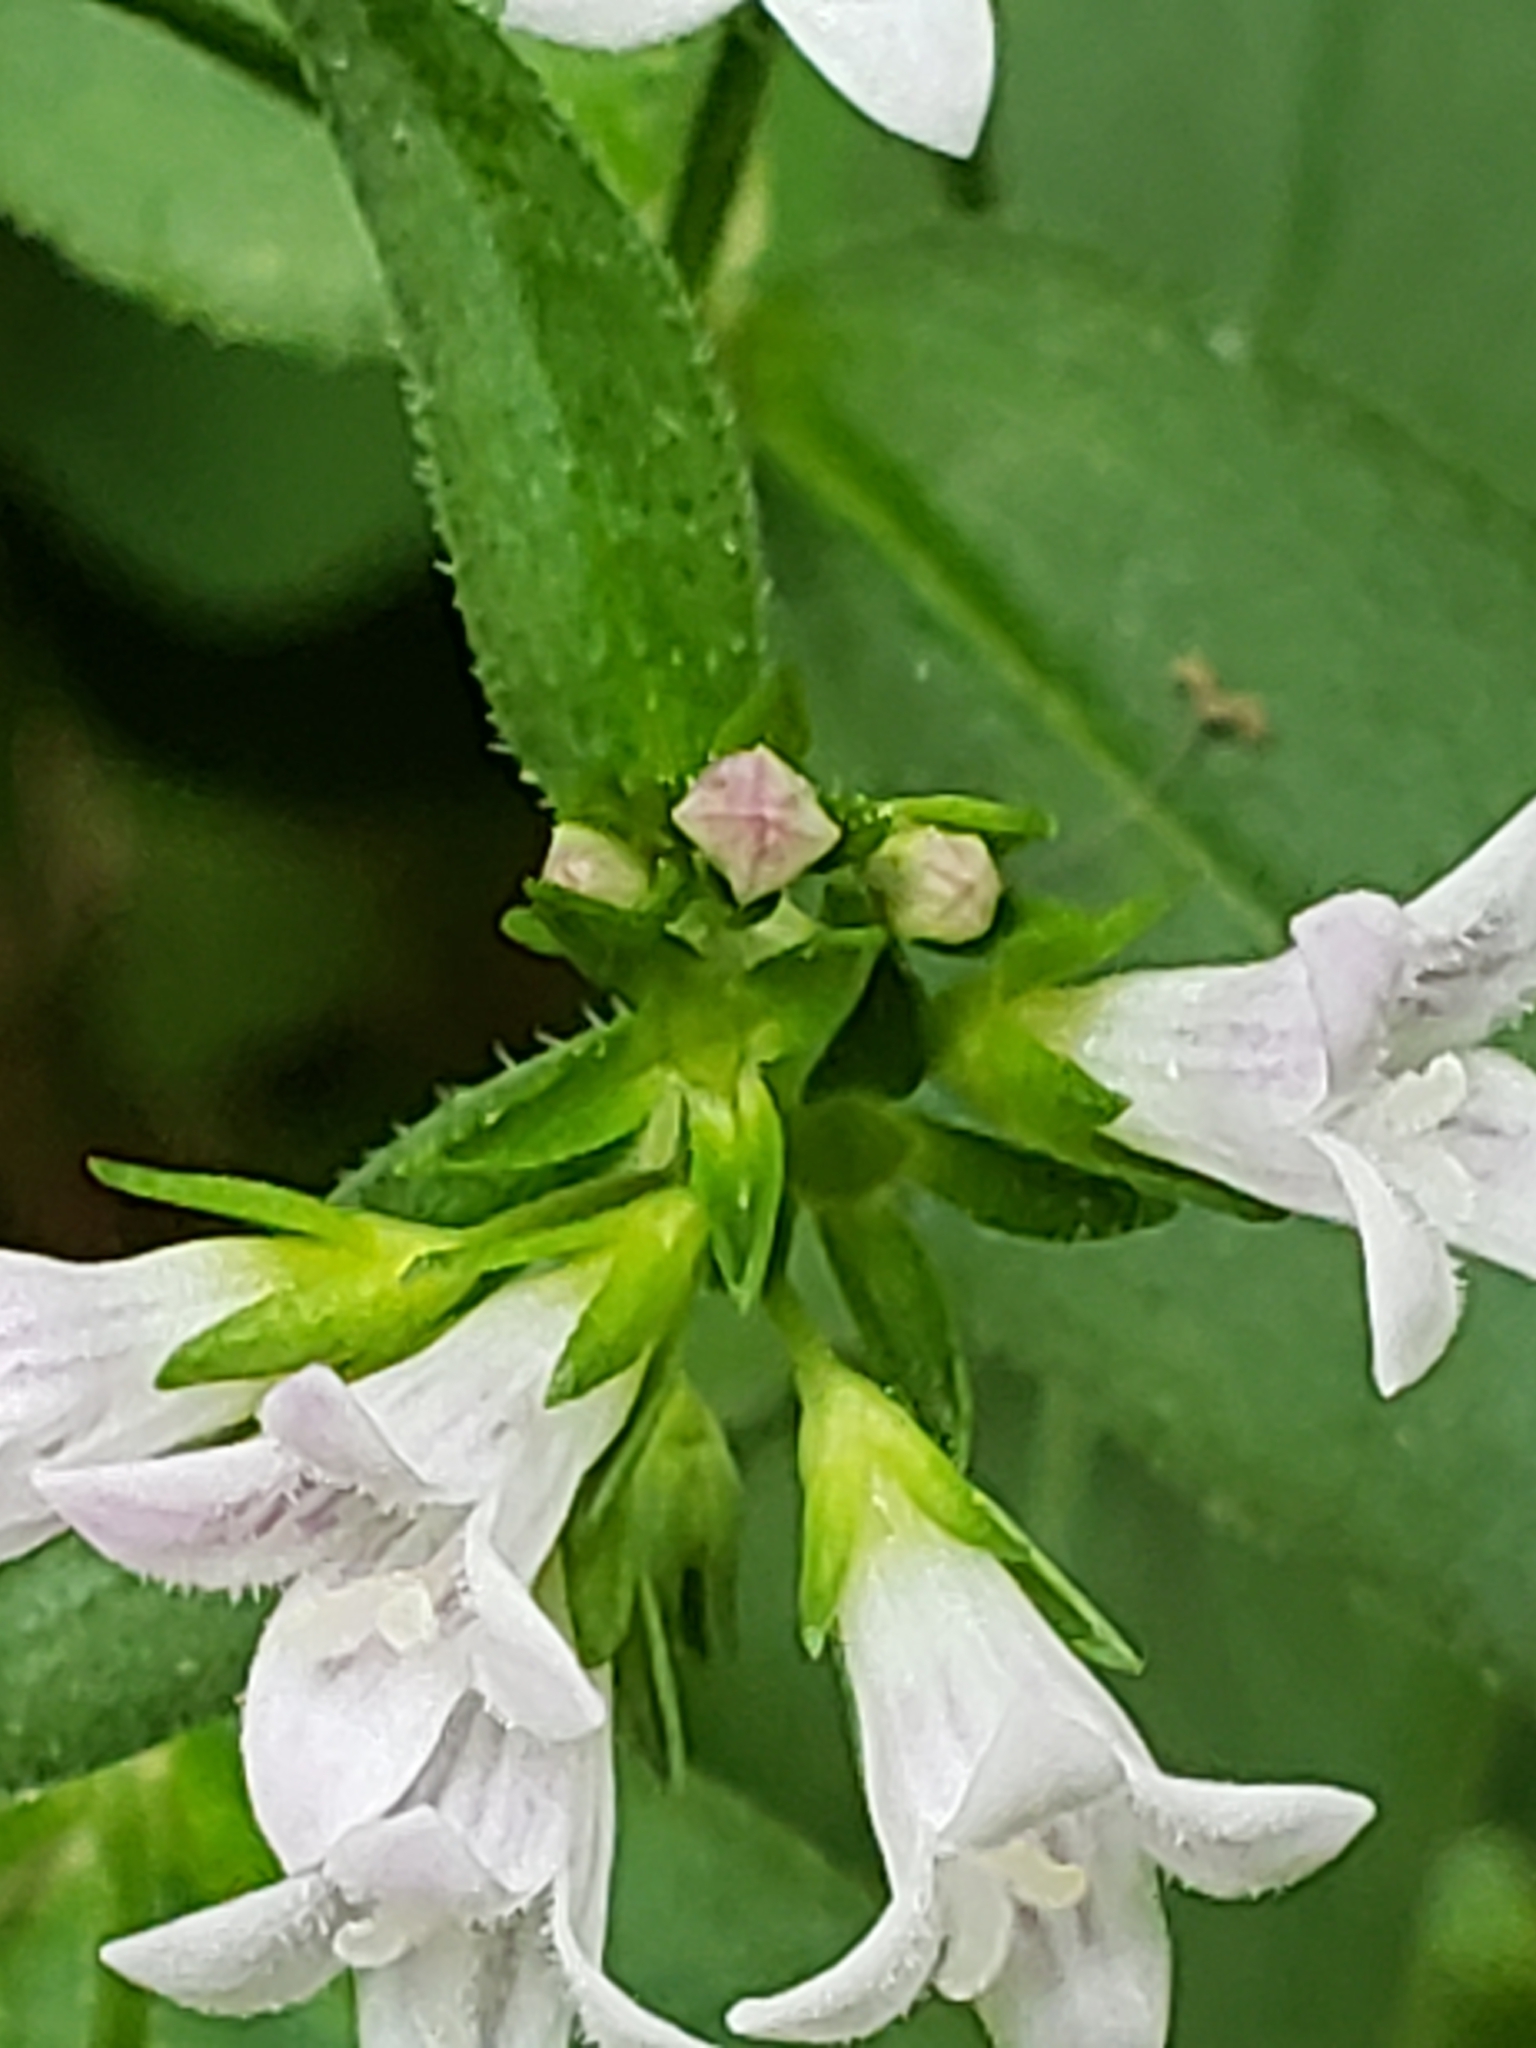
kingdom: Plantae
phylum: Tracheophyta
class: Magnoliopsida
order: Gentianales
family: Rubiaceae
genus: Houstonia
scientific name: Houstonia purpurea
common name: Summer bluet
